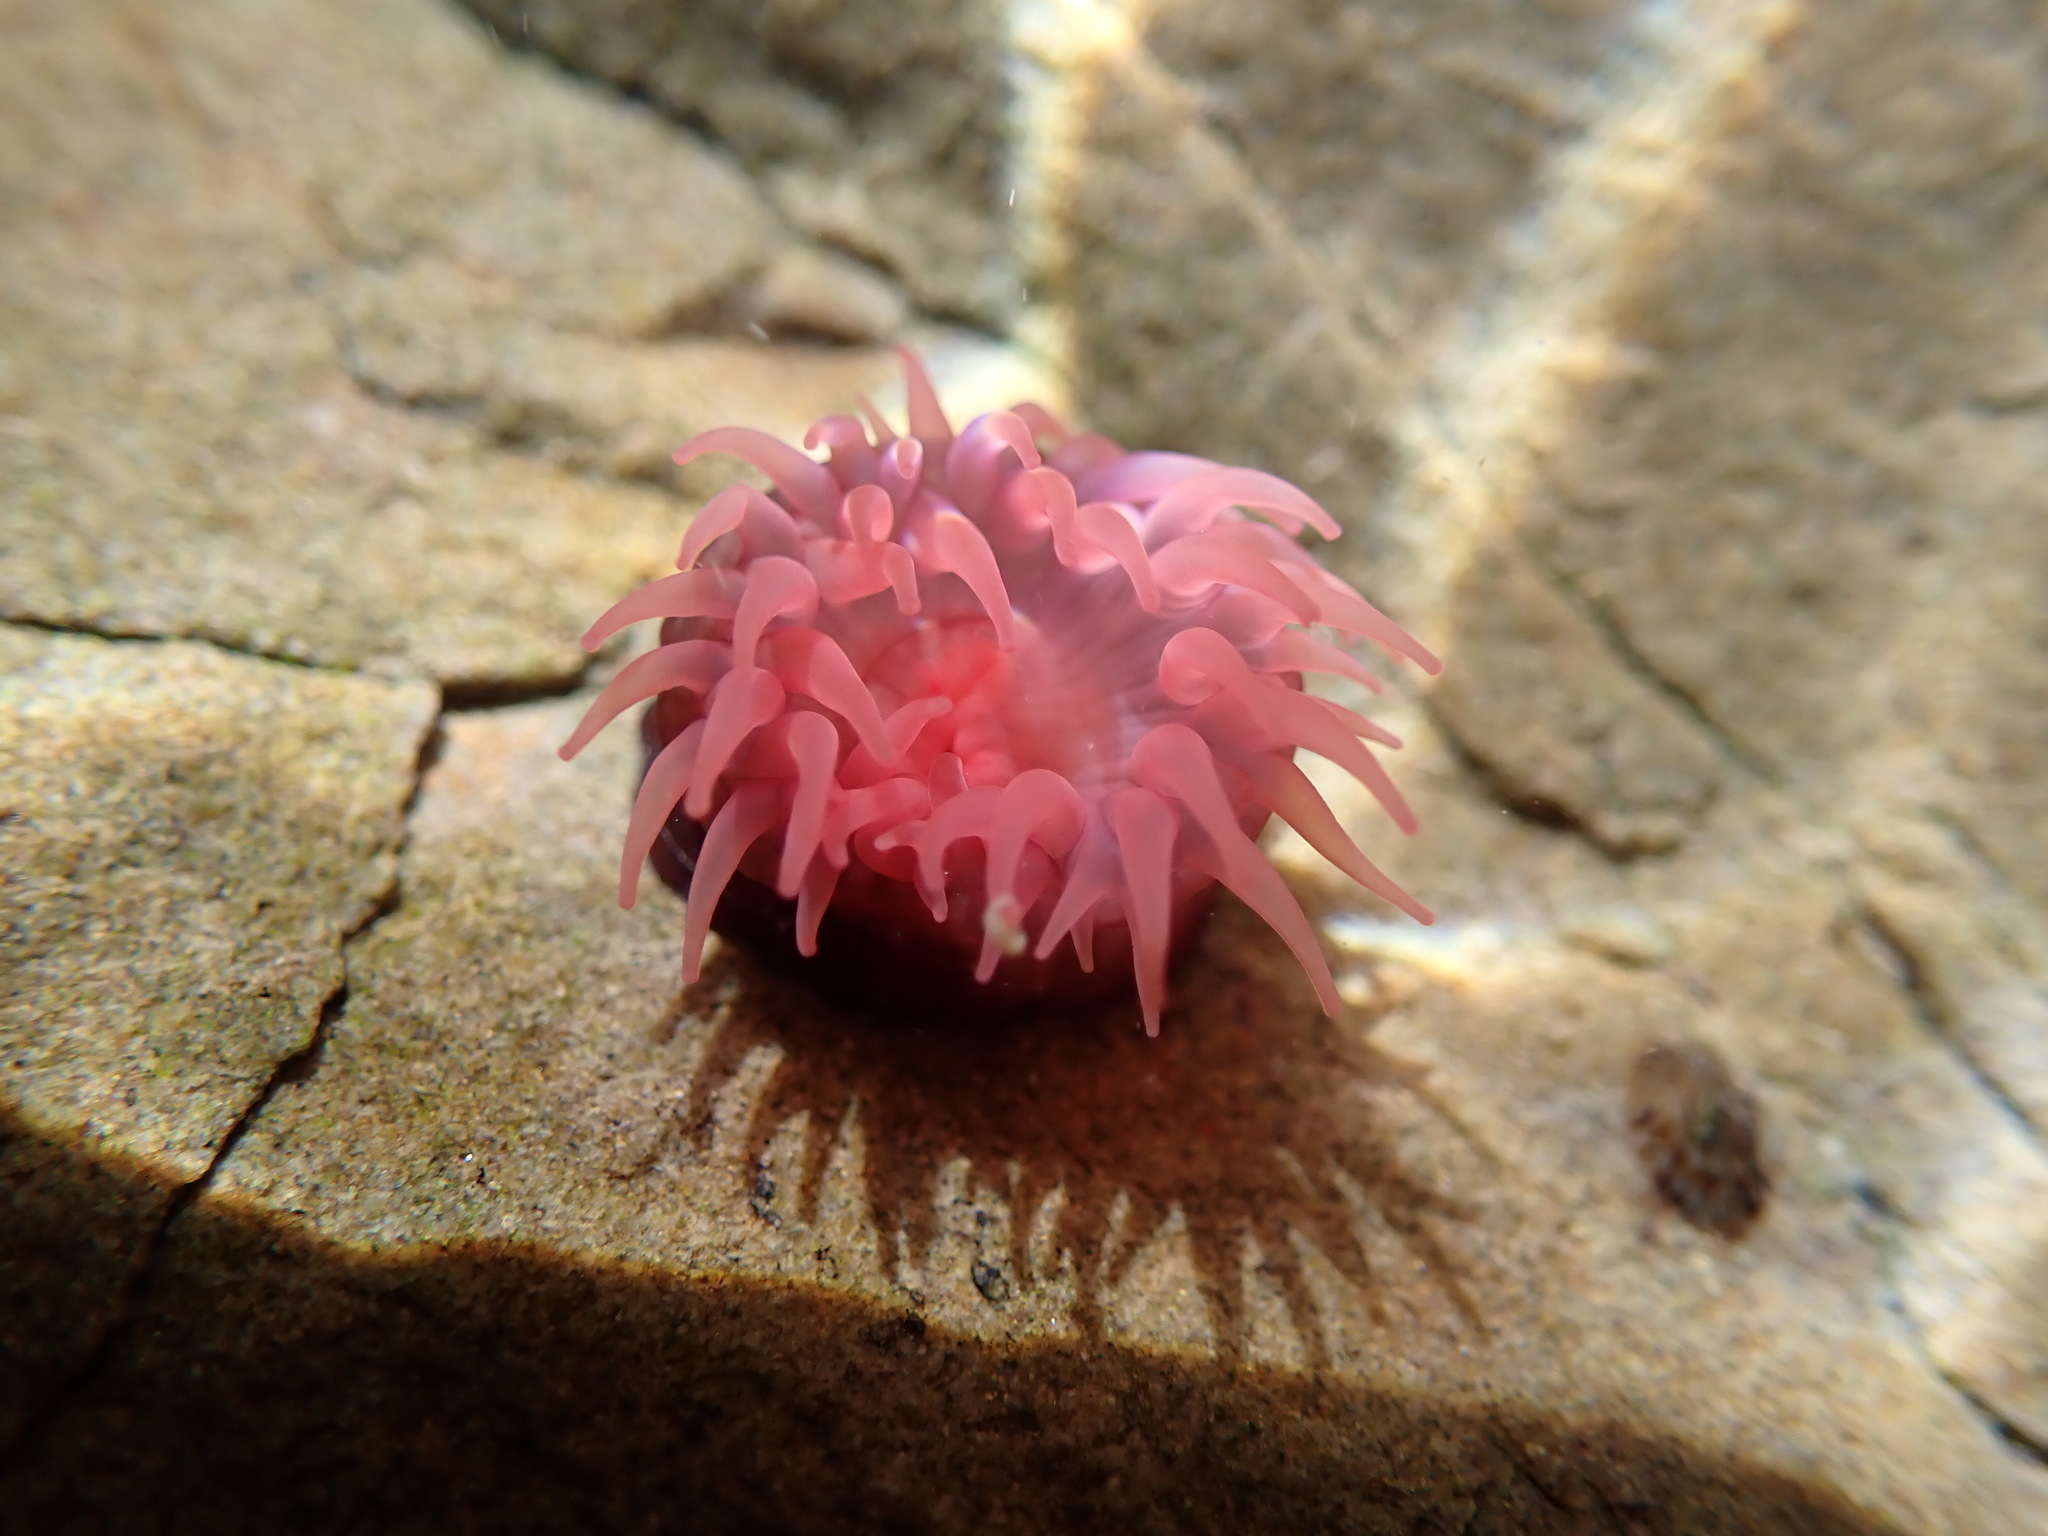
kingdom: Animalia
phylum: Cnidaria
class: Anthozoa
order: Actiniaria
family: Actiniidae
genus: Actinia
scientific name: Actinia tenebrosa
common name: Waratah anemone
